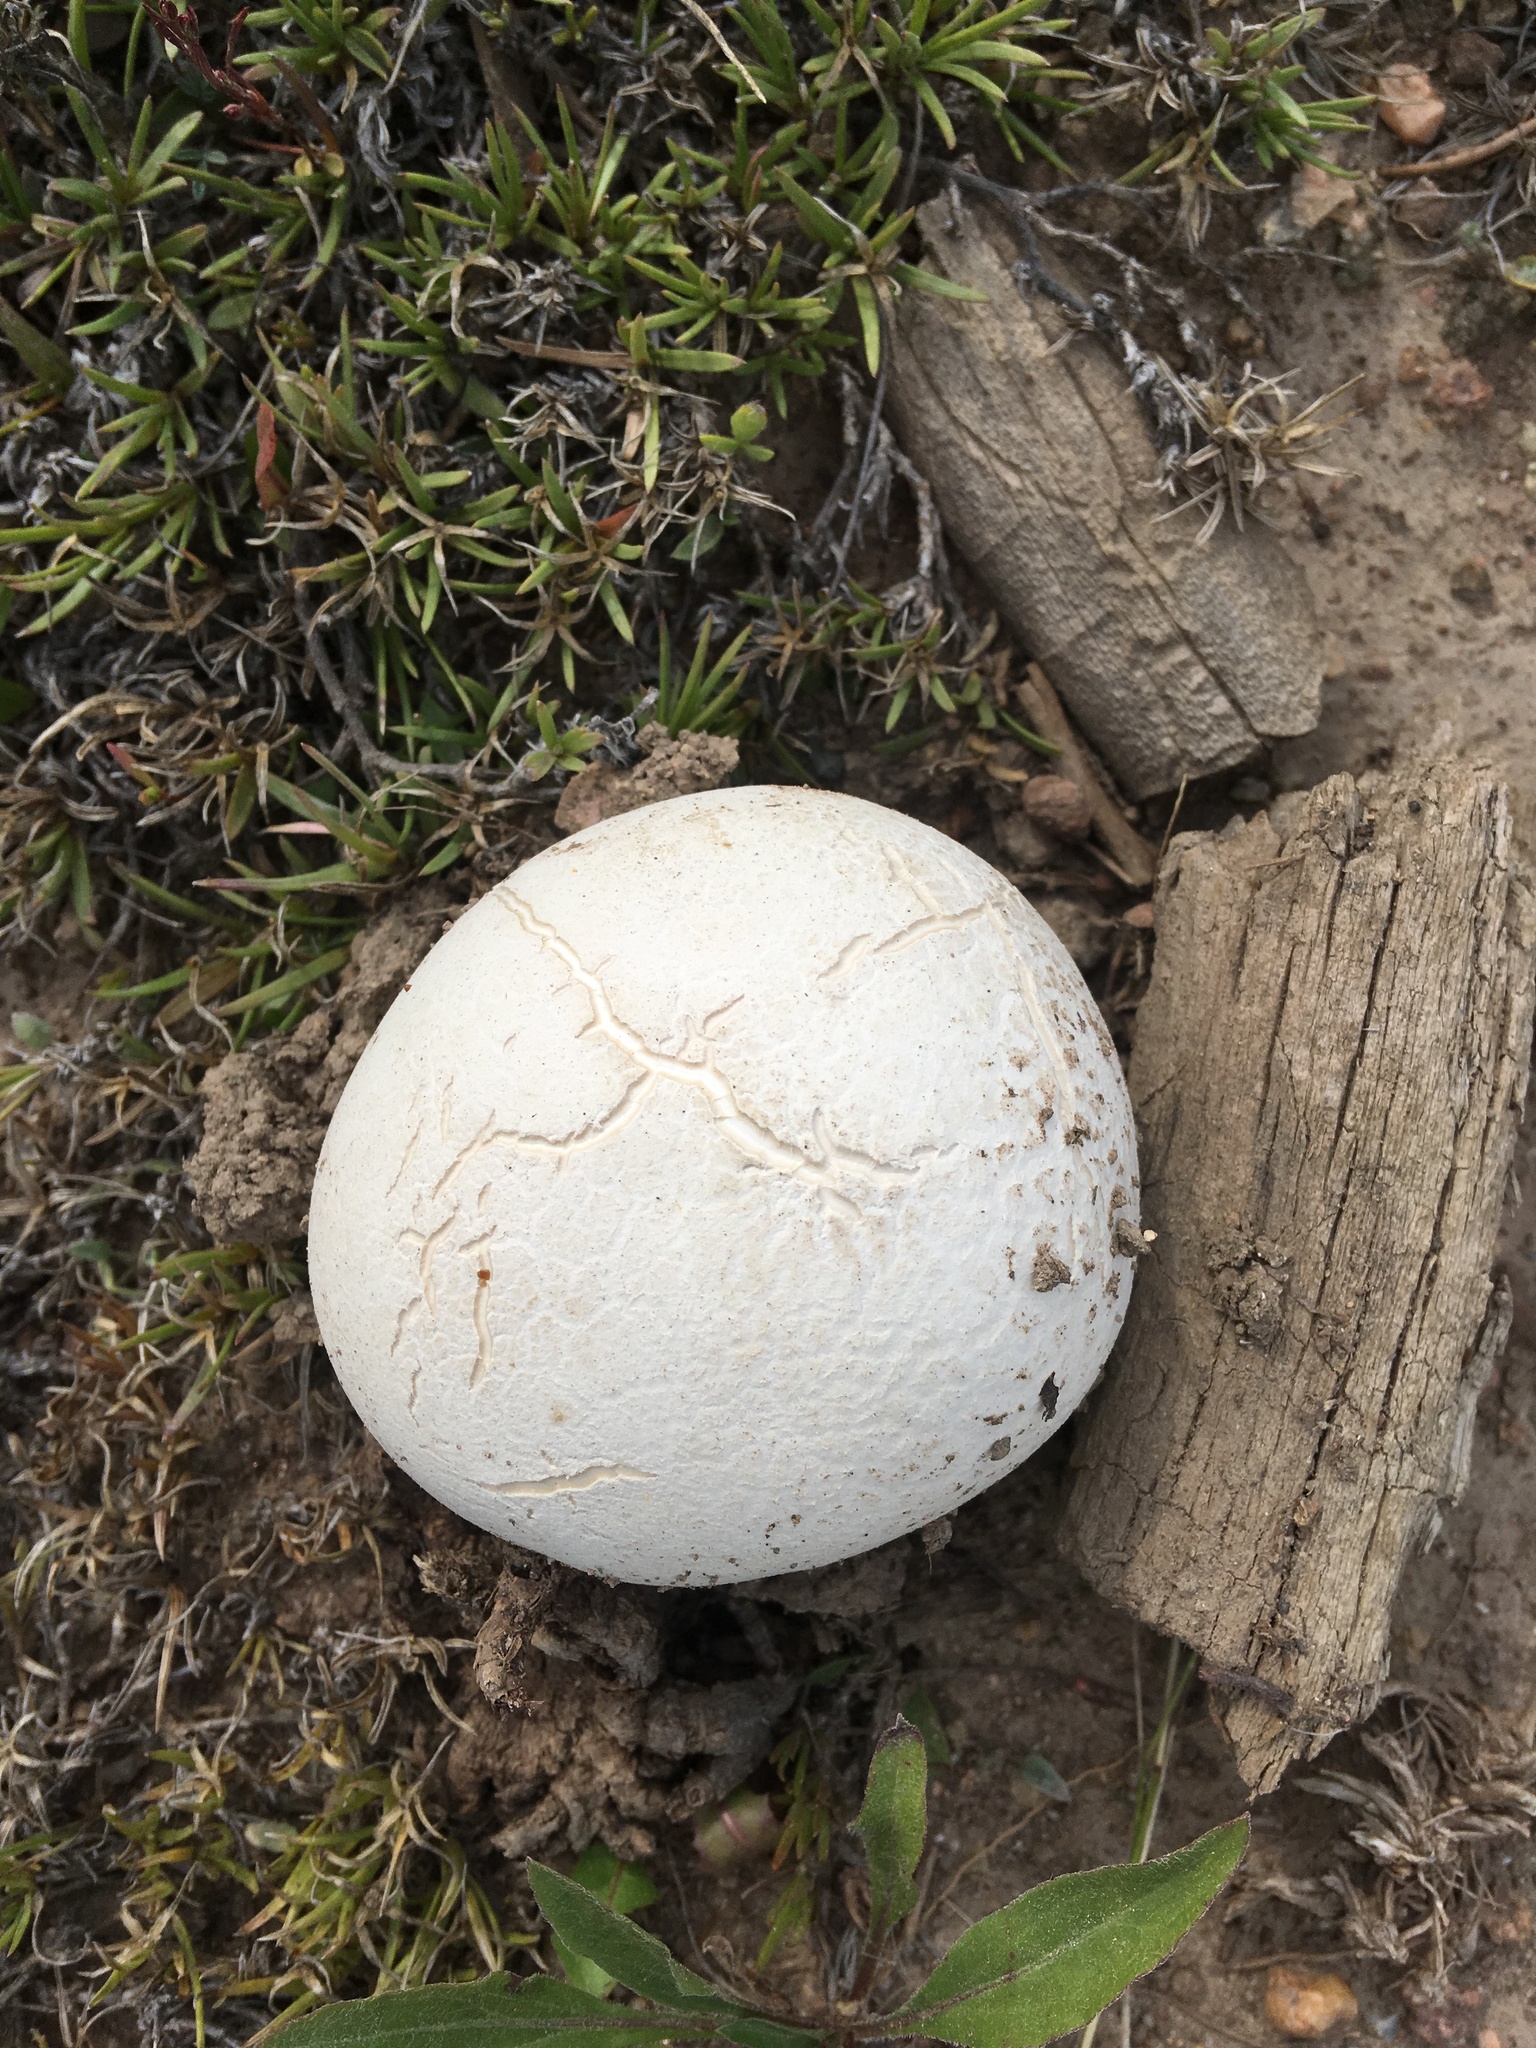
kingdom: Fungi
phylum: Basidiomycota
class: Agaricomycetes
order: Agaricales
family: Lycoperdaceae
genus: Calvatia
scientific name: Calvatia booniana
